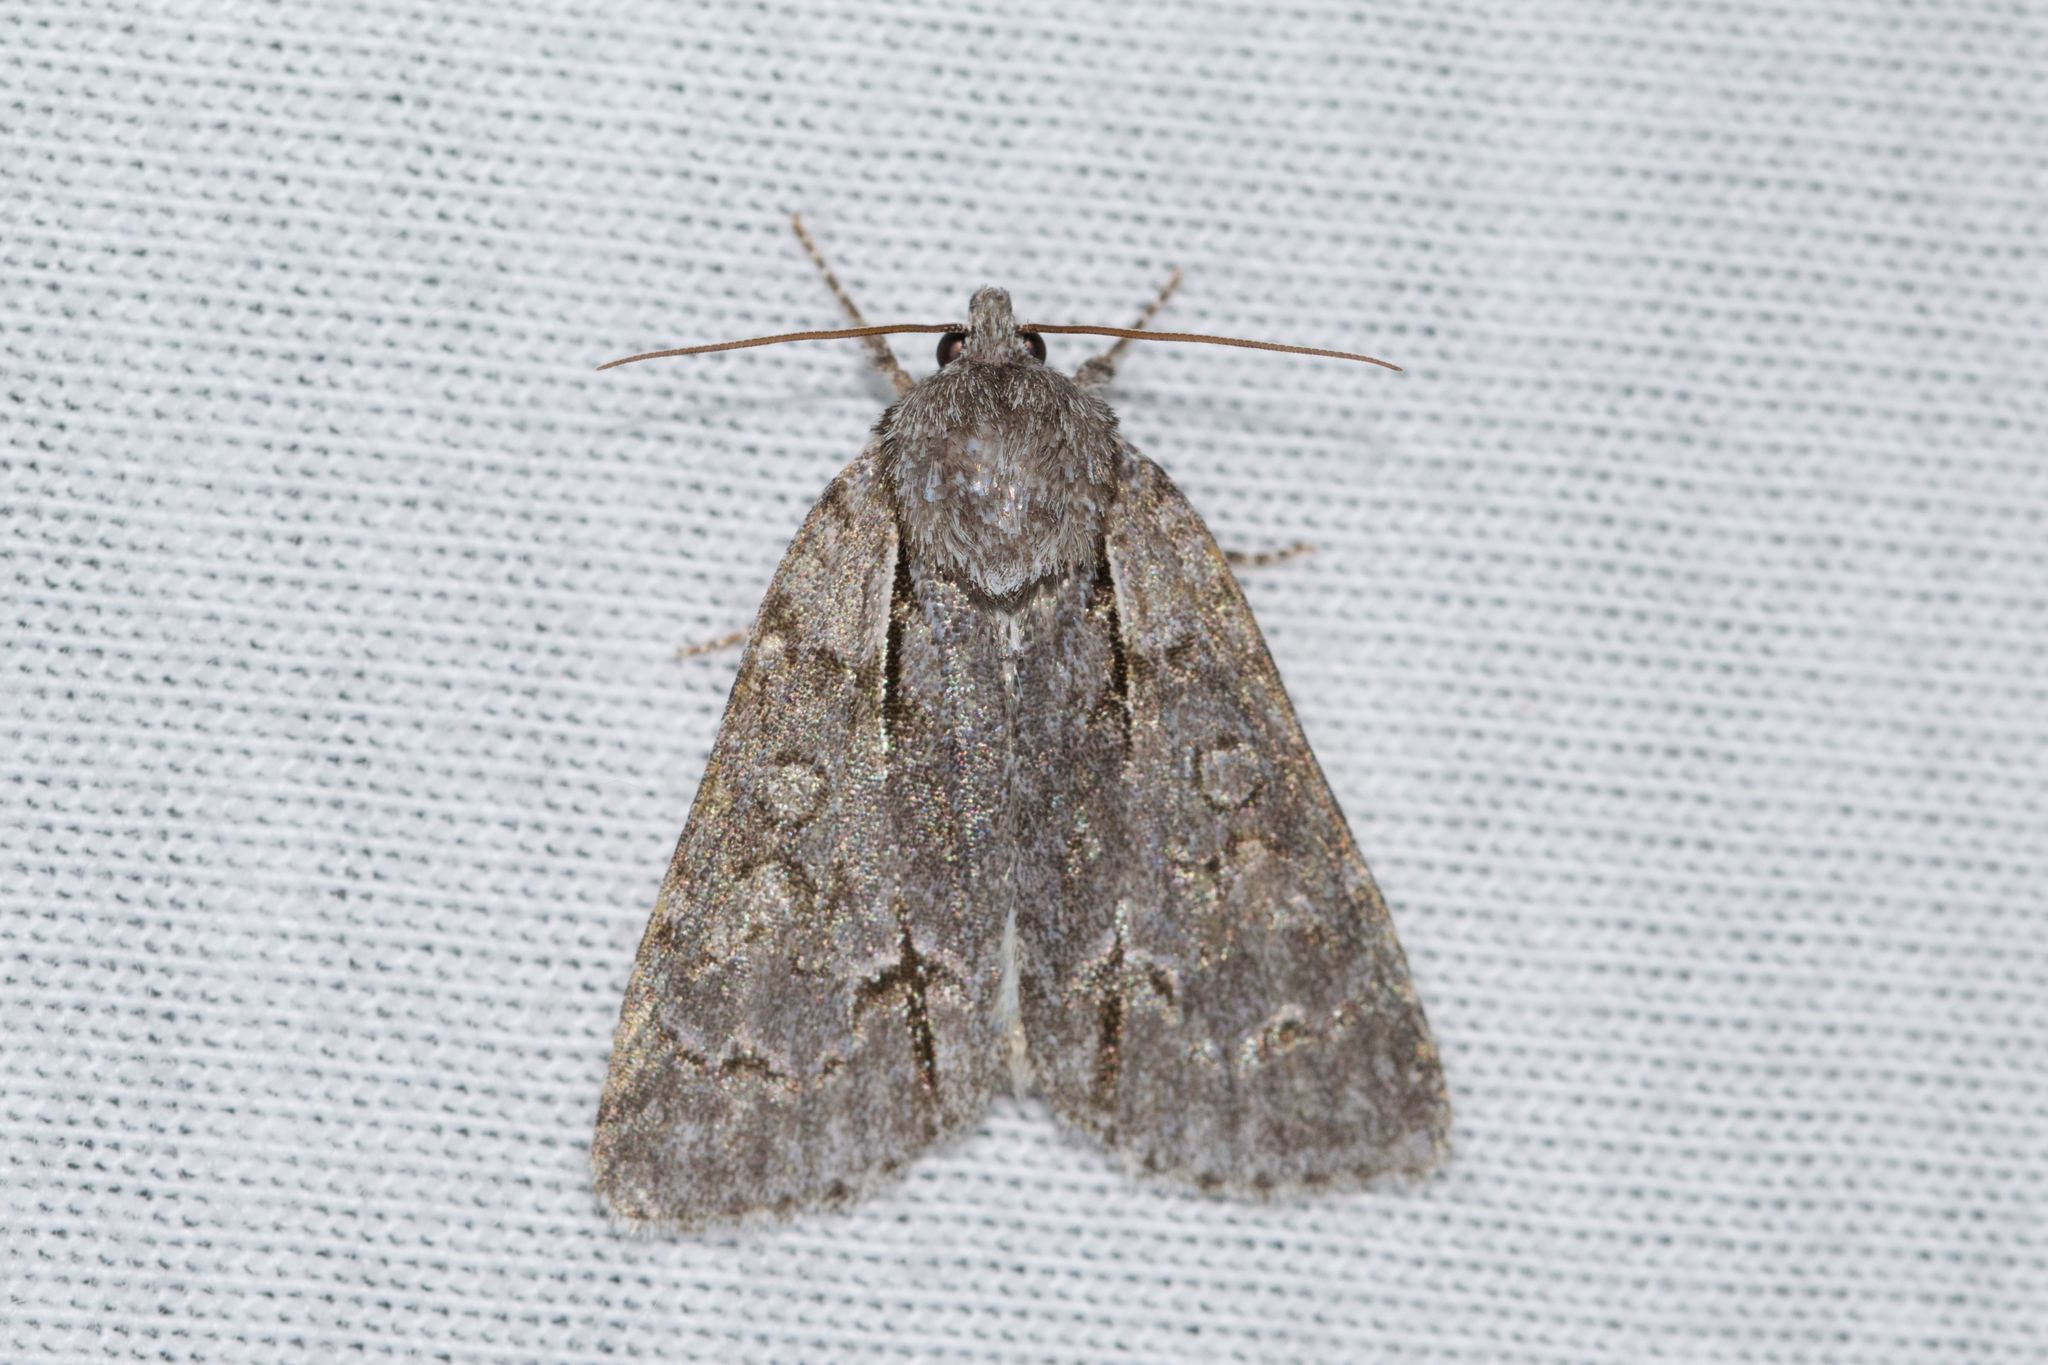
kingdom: Animalia
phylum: Arthropoda
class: Insecta
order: Lepidoptera
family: Noctuidae
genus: Acronicta
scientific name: Acronicta grisea
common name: Gray dagger
